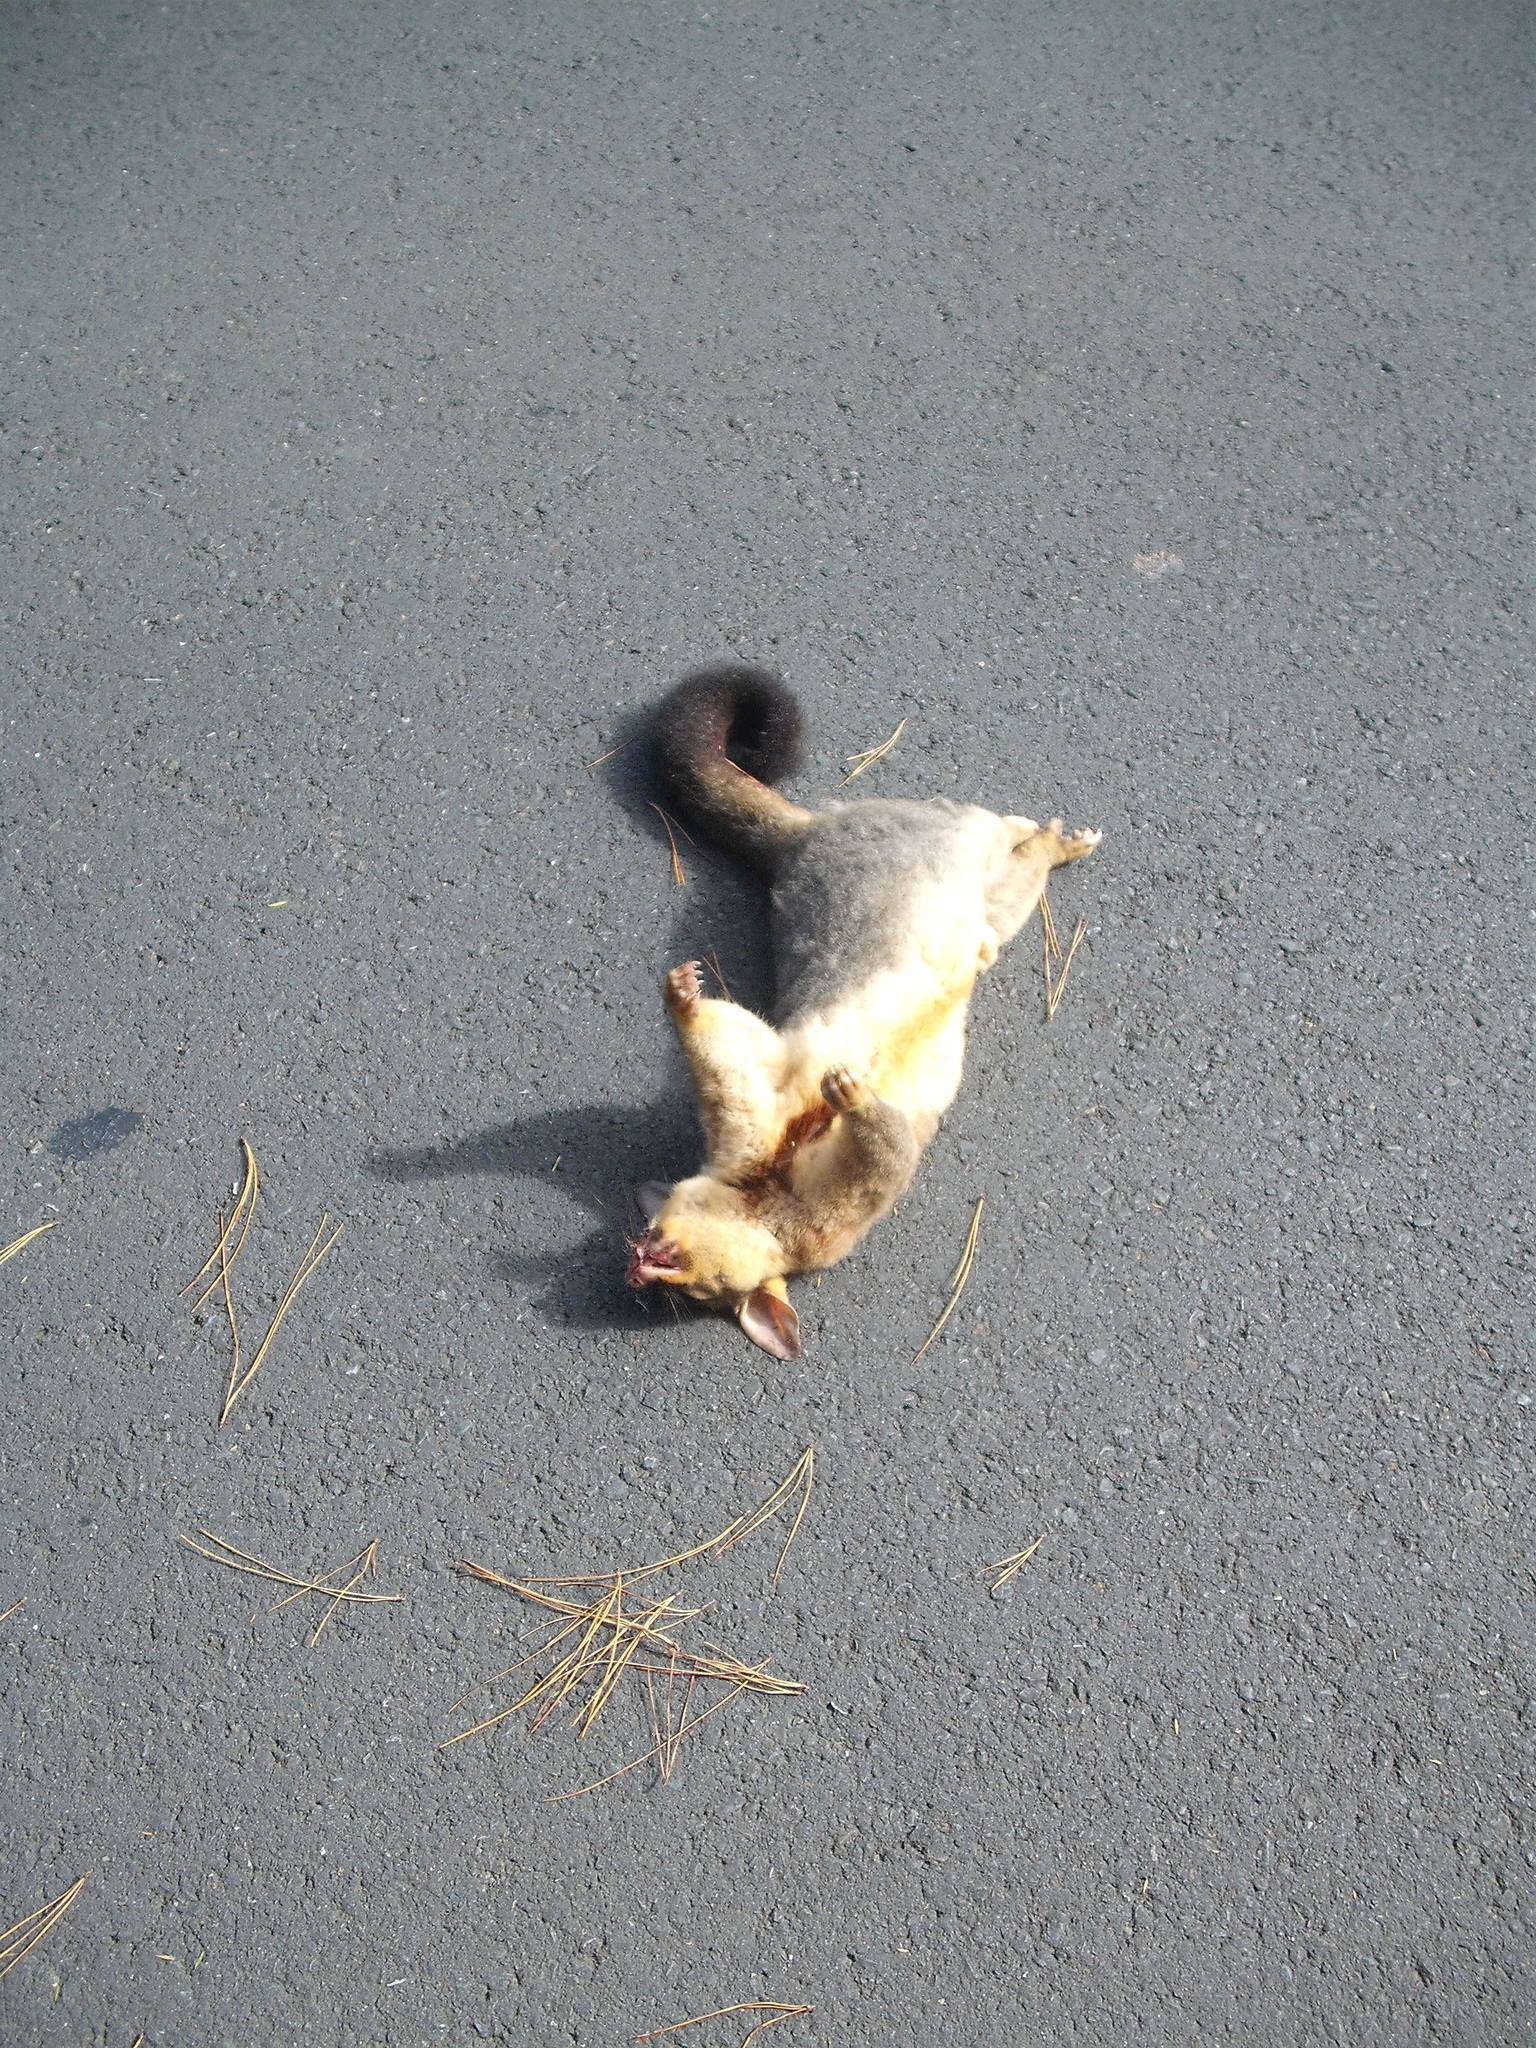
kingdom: Animalia
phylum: Chordata
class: Mammalia
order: Diprotodontia
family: Phalangeridae
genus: Trichosurus
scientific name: Trichosurus vulpecula
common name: Common brushtail
